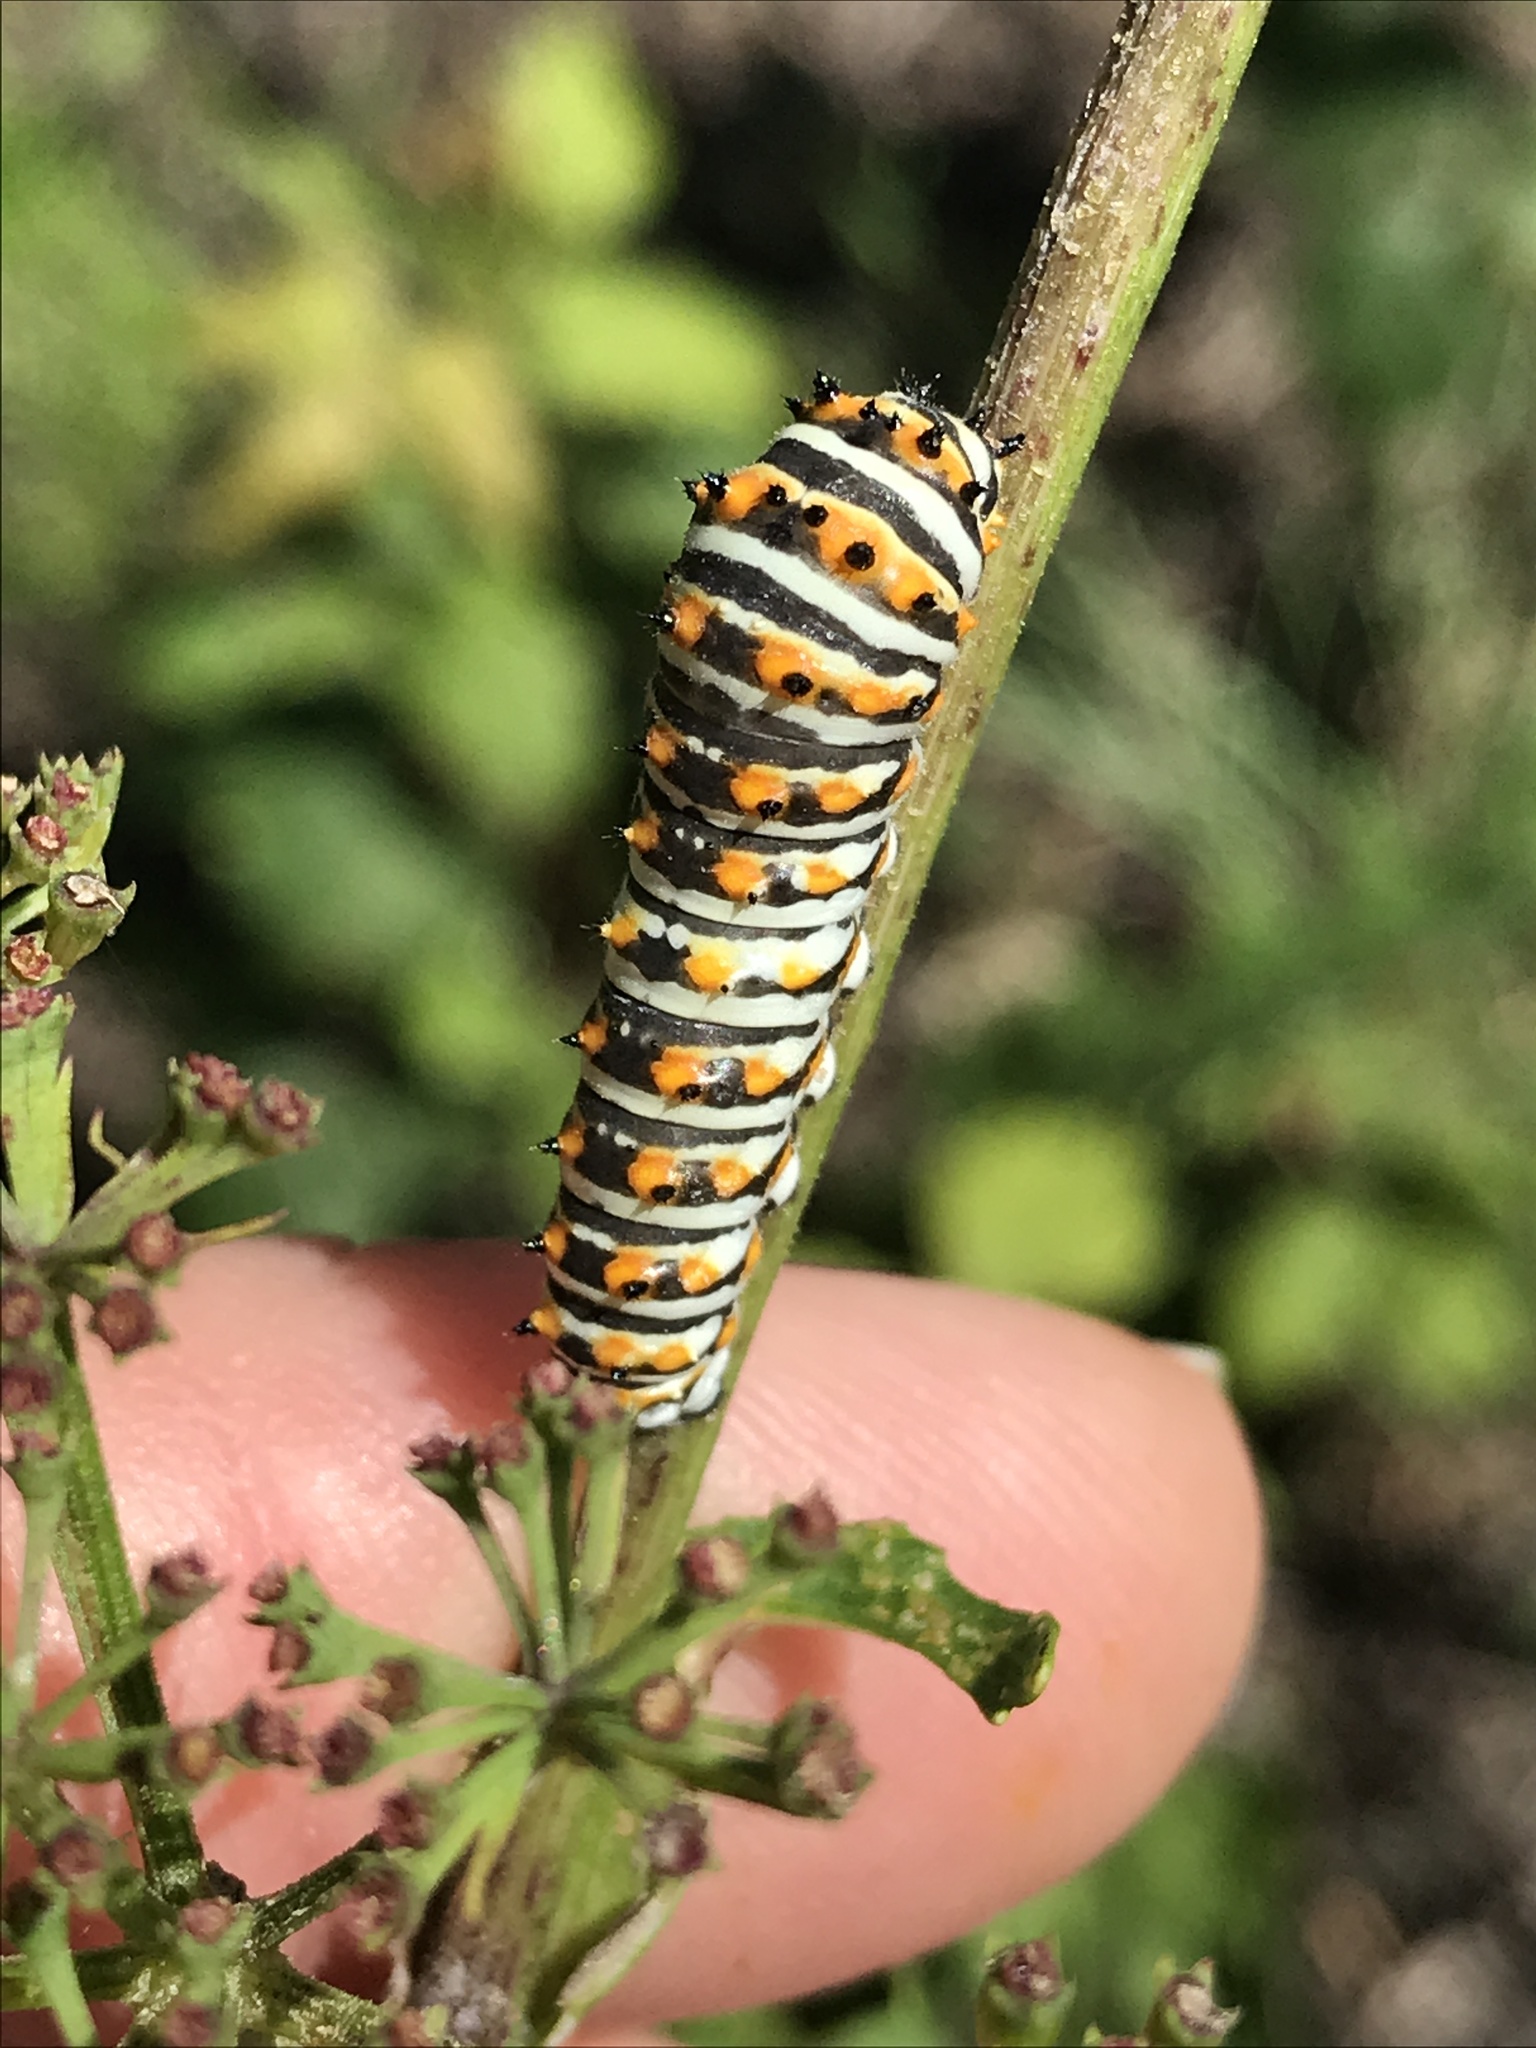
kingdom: Animalia
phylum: Arthropoda
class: Insecta
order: Lepidoptera
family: Papilionidae
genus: Papilio
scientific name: Papilio polyxenes
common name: Black swallowtail
